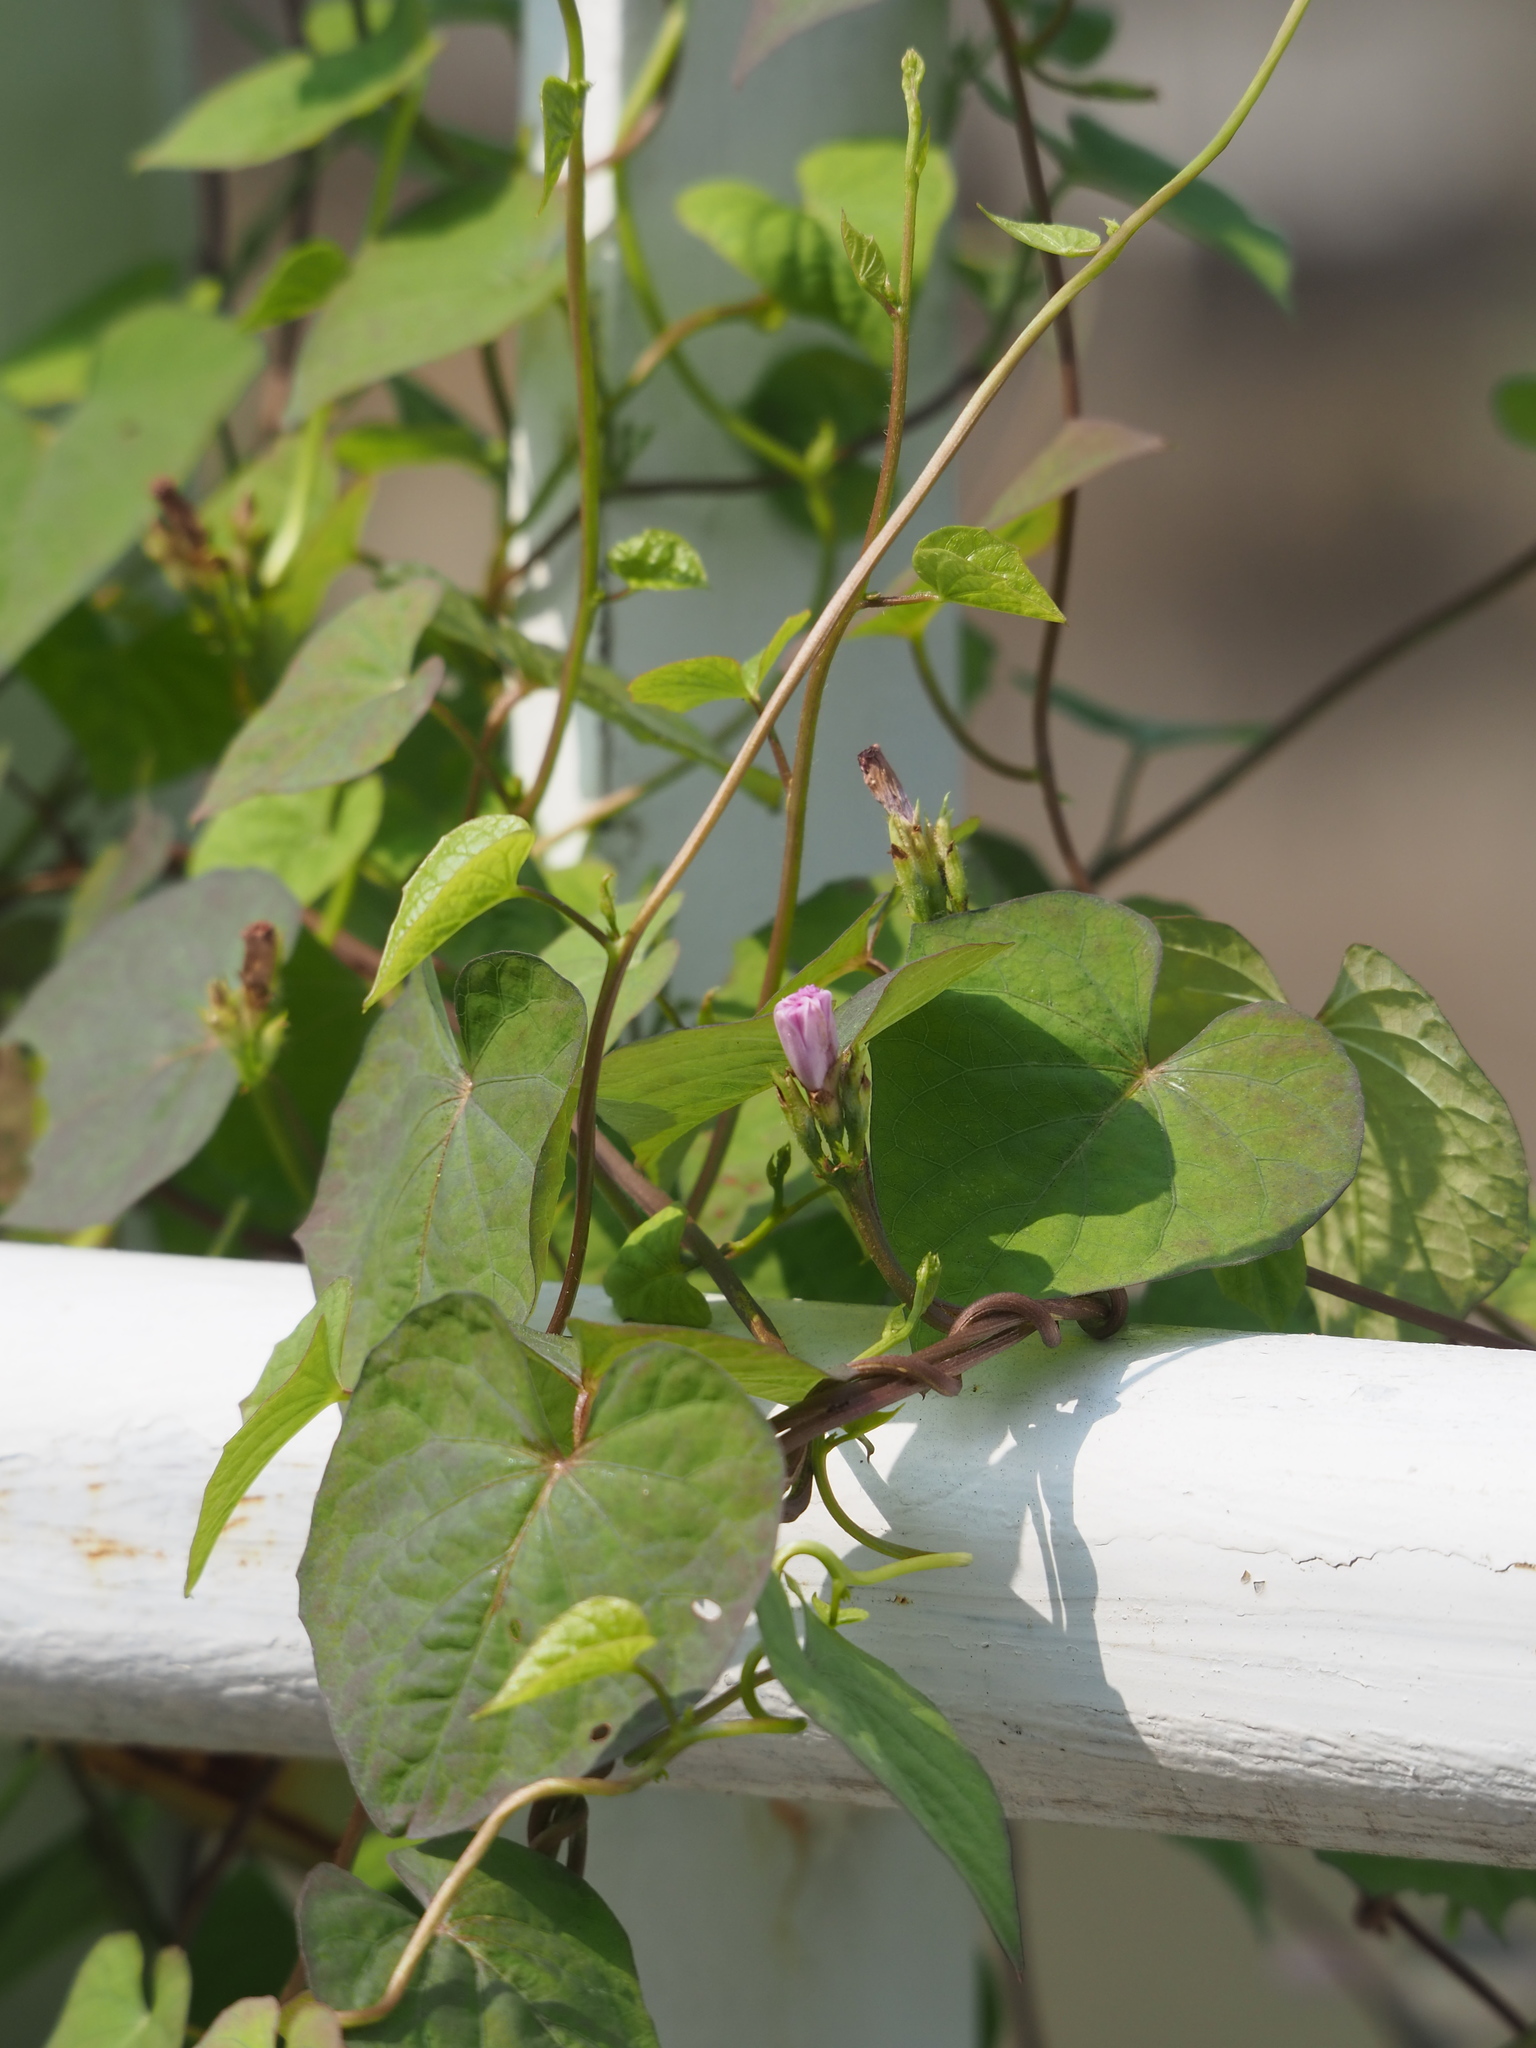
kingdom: Plantae
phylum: Tracheophyta
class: Magnoliopsida
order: Solanales
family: Convolvulaceae
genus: Ipomoea
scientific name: Ipomoea triloba
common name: Little-bell
